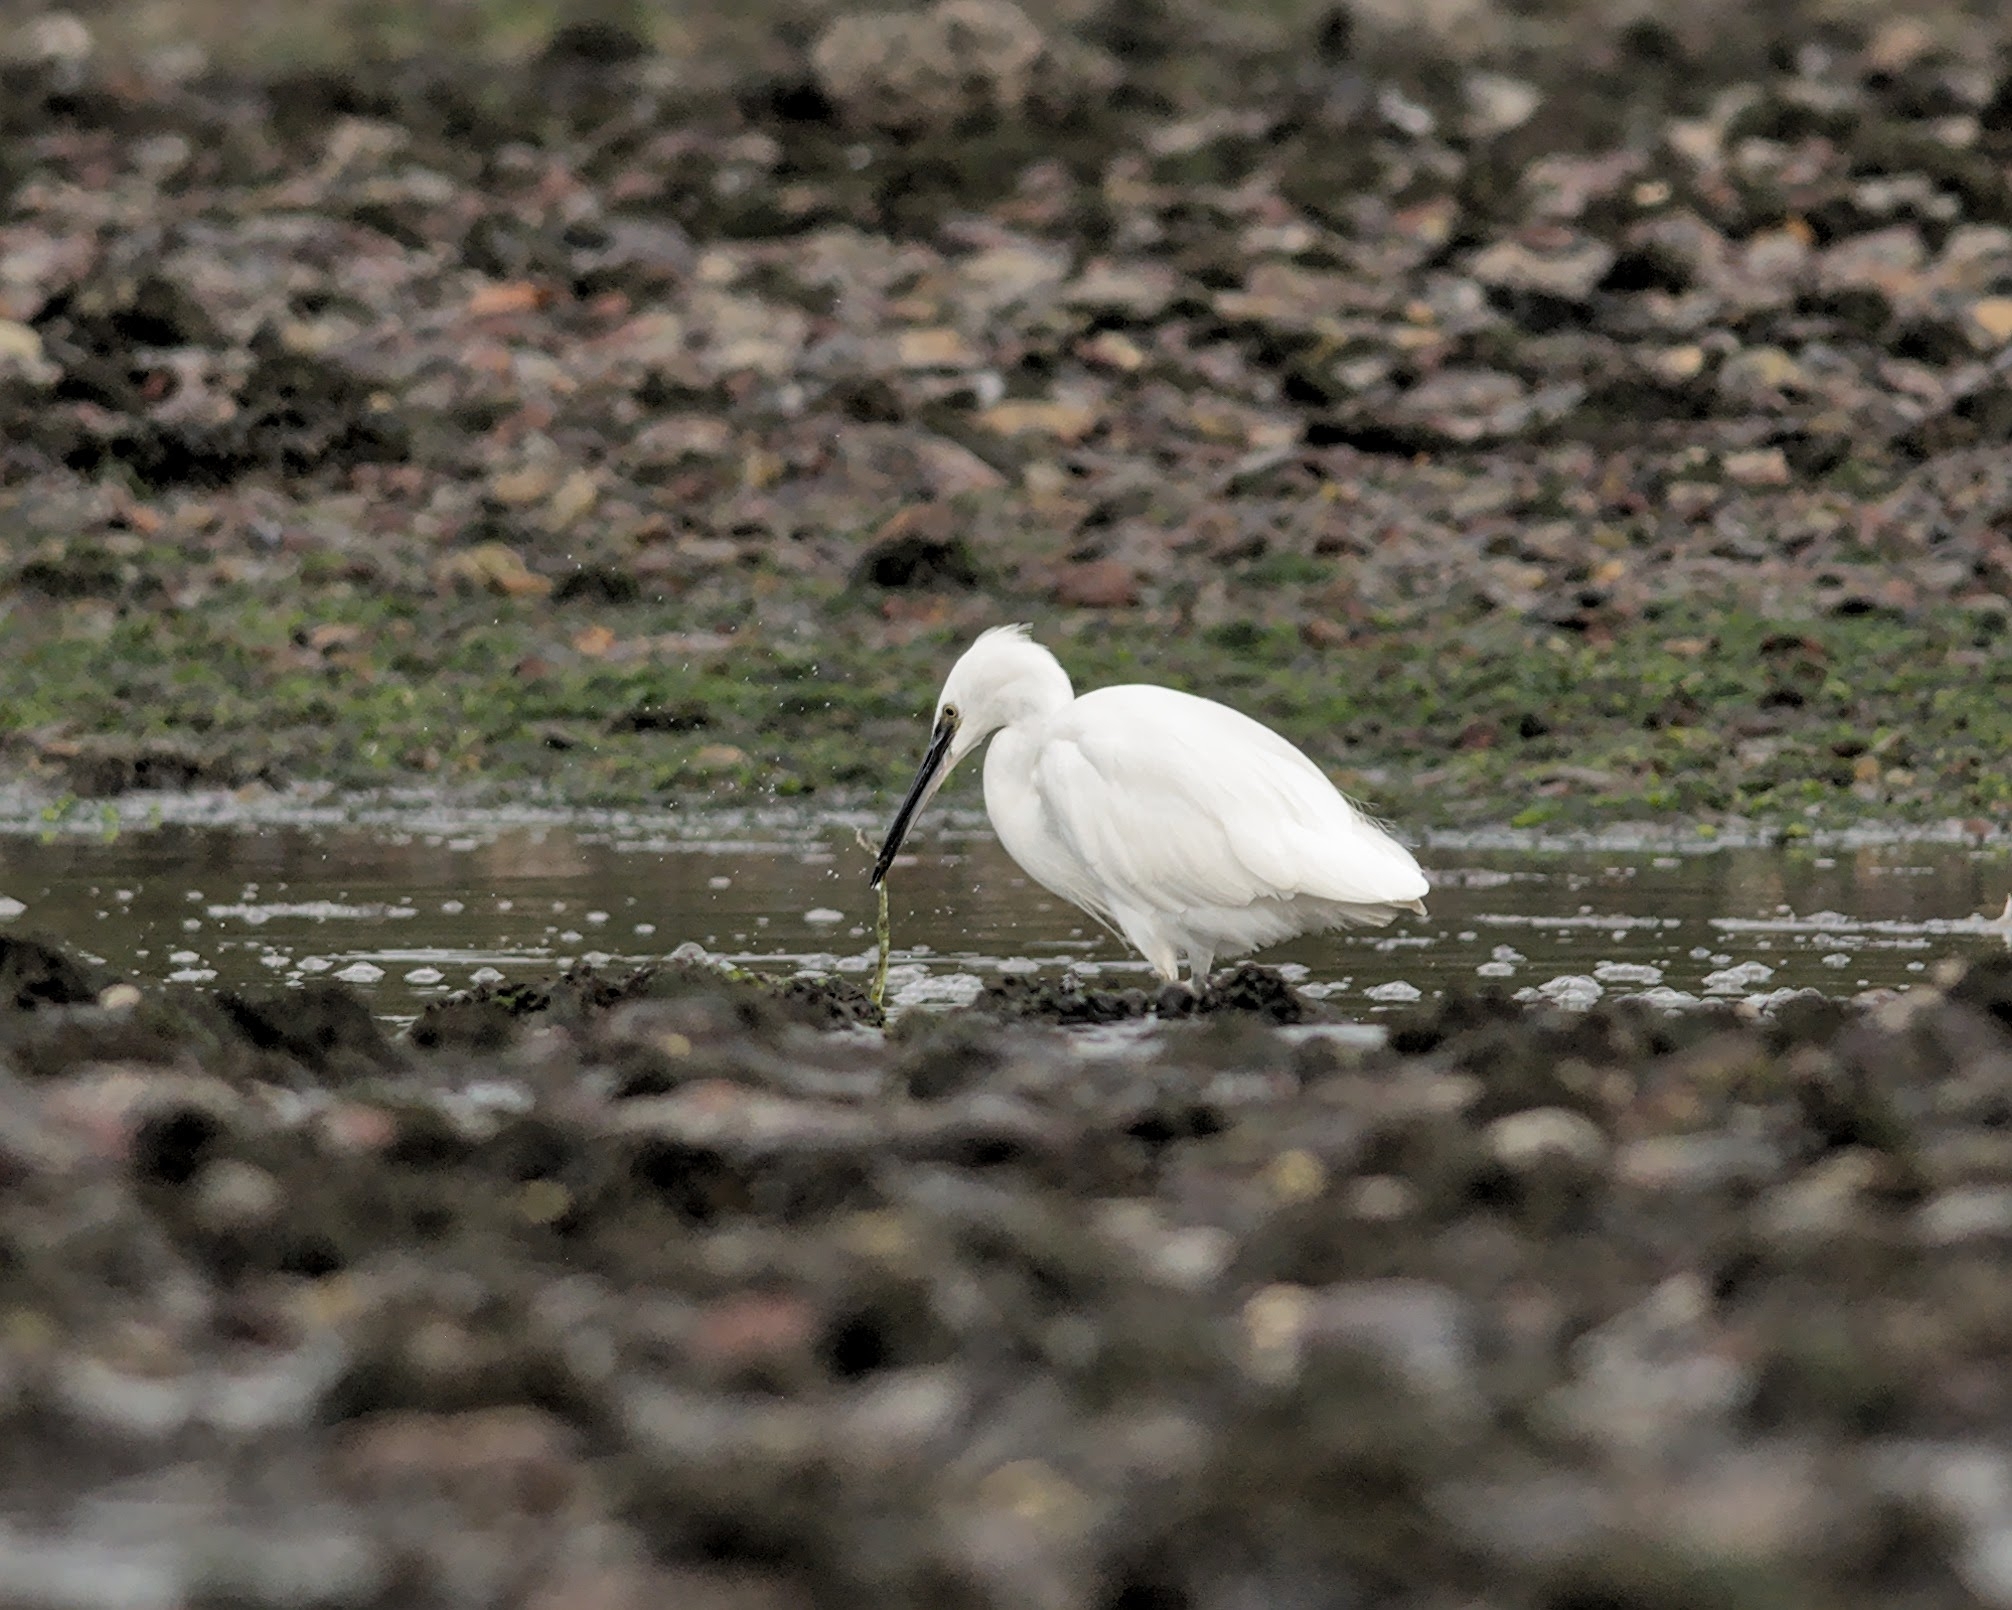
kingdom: Animalia
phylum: Chordata
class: Aves
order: Pelecaniformes
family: Ardeidae
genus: Egretta
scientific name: Egretta garzetta
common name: Little egret
